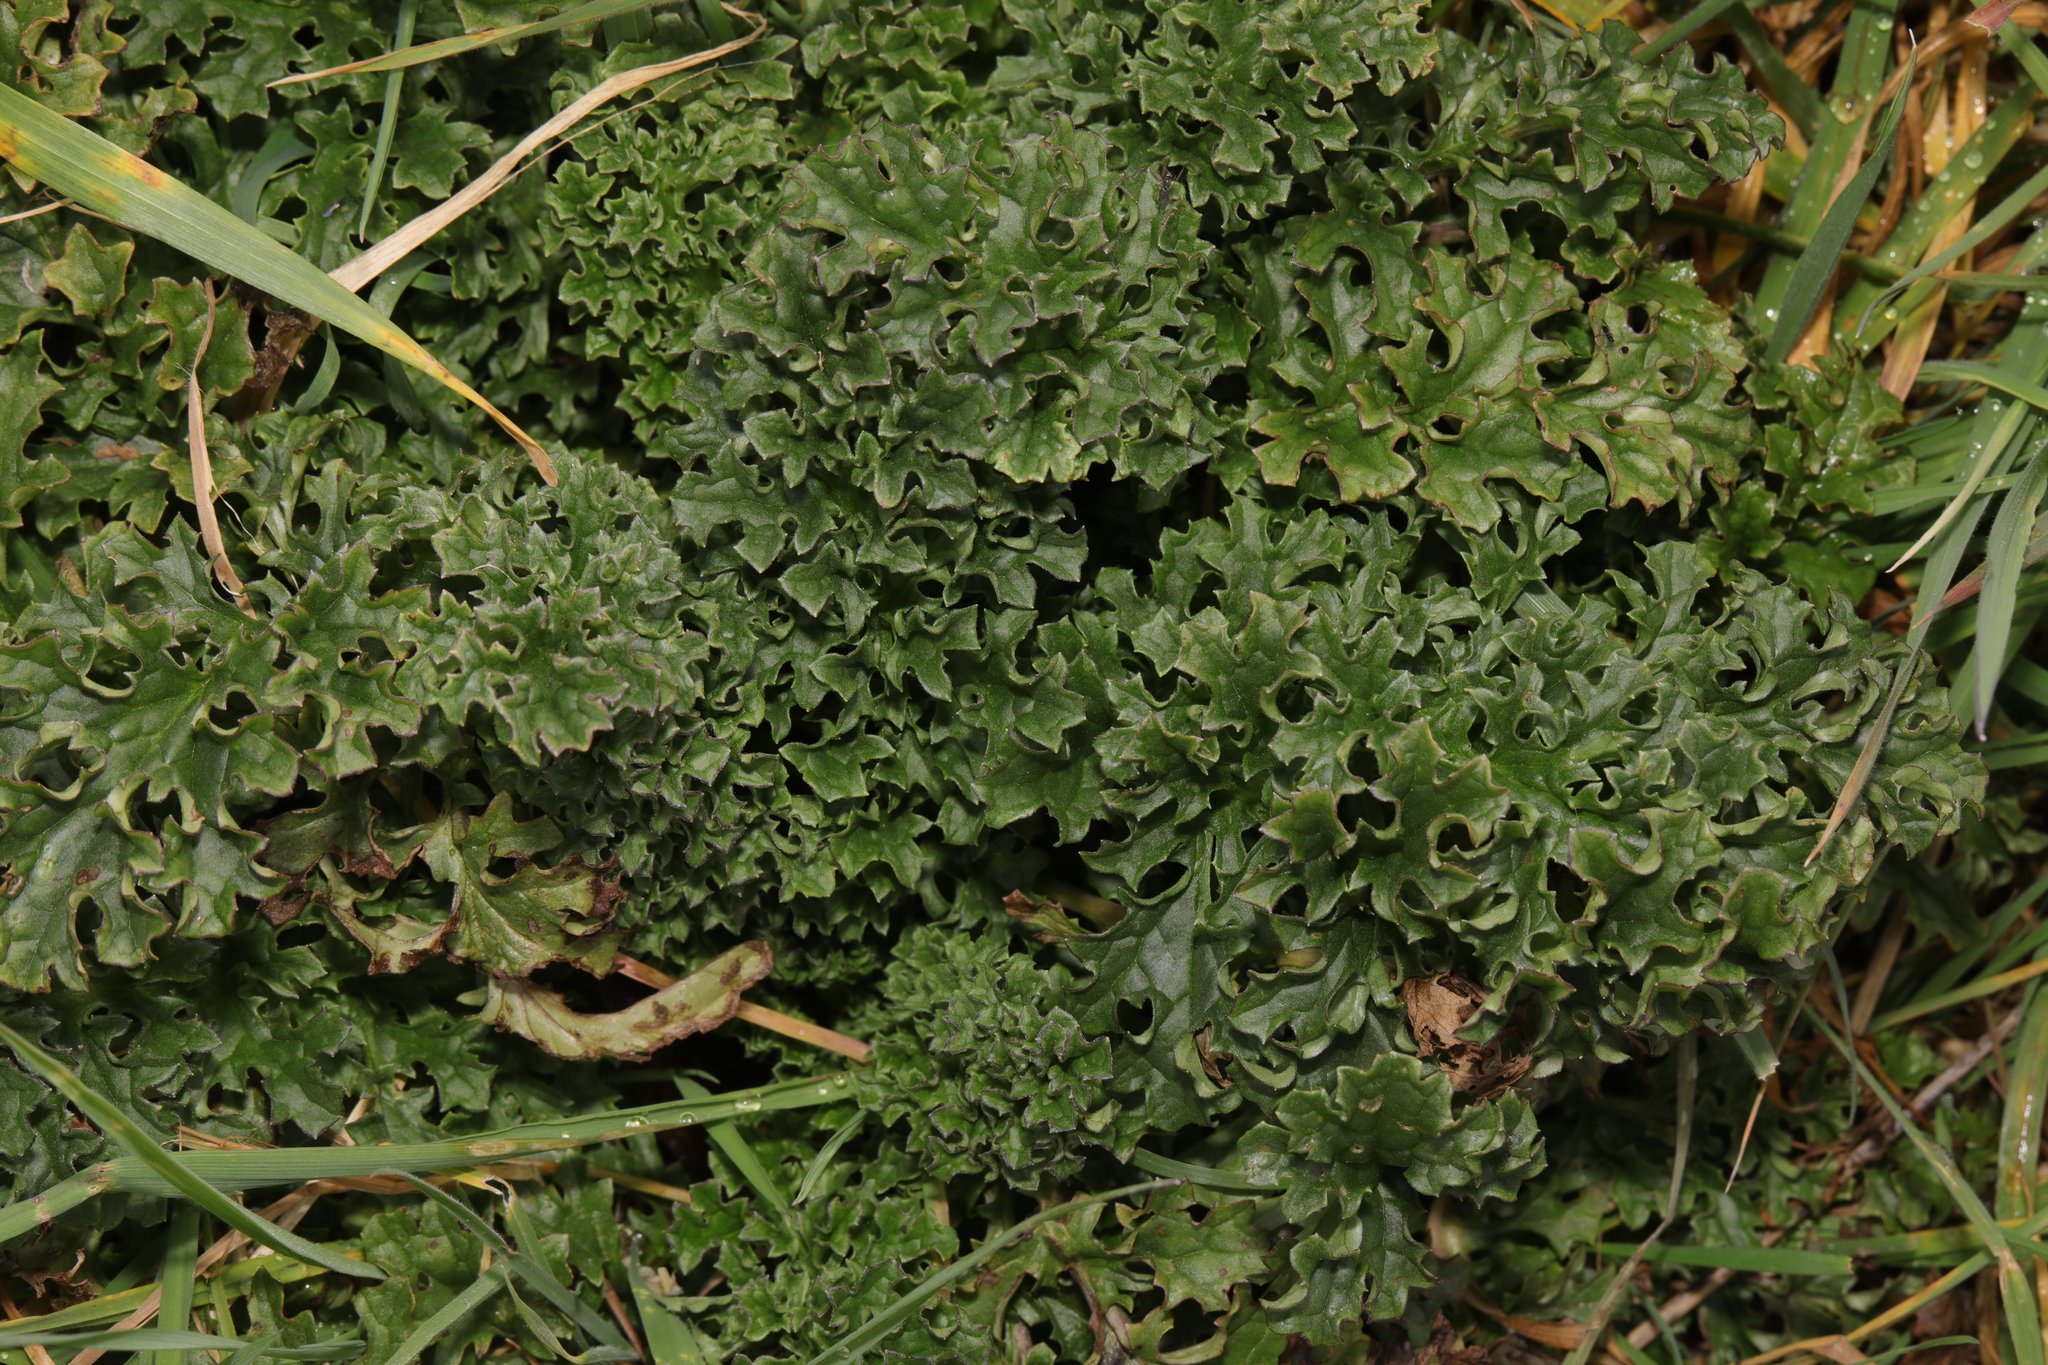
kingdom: Plantae
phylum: Tracheophyta
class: Magnoliopsida
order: Asterales
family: Asteraceae
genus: Jacobaea
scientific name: Jacobaea vulgaris
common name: Stinking willie
